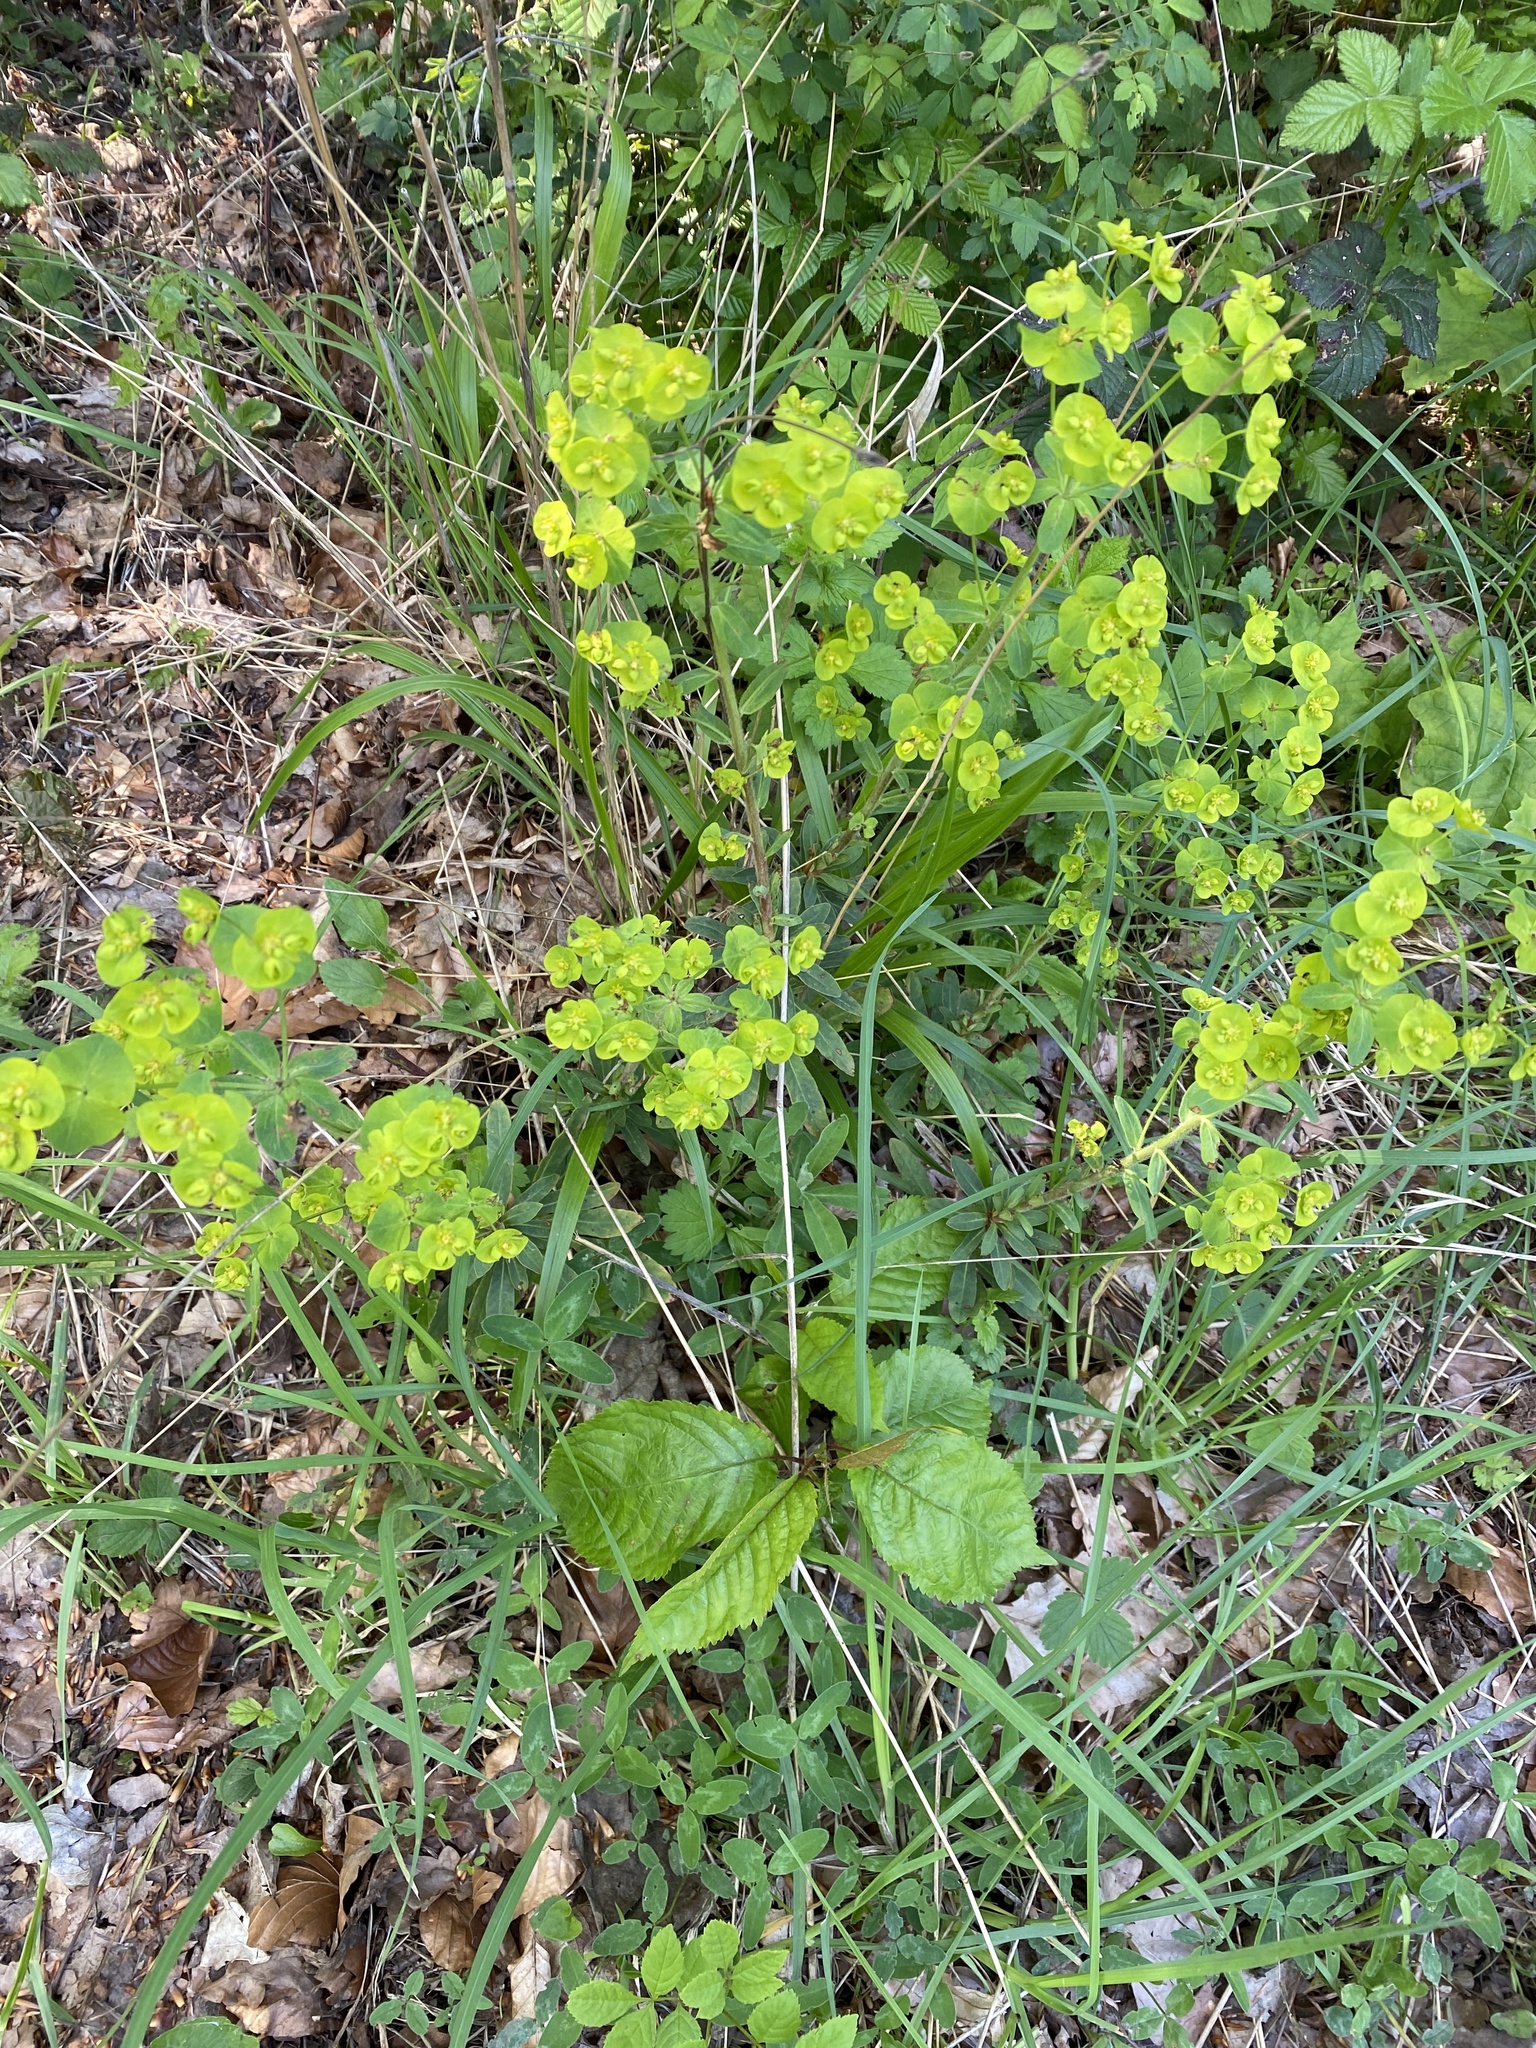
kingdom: Plantae
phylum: Tracheophyta
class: Magnoliopsida
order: Malpighiales
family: Euphorbiaceae
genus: Euphorbia
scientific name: Euphorbia amygdaloides
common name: Wood spurge
